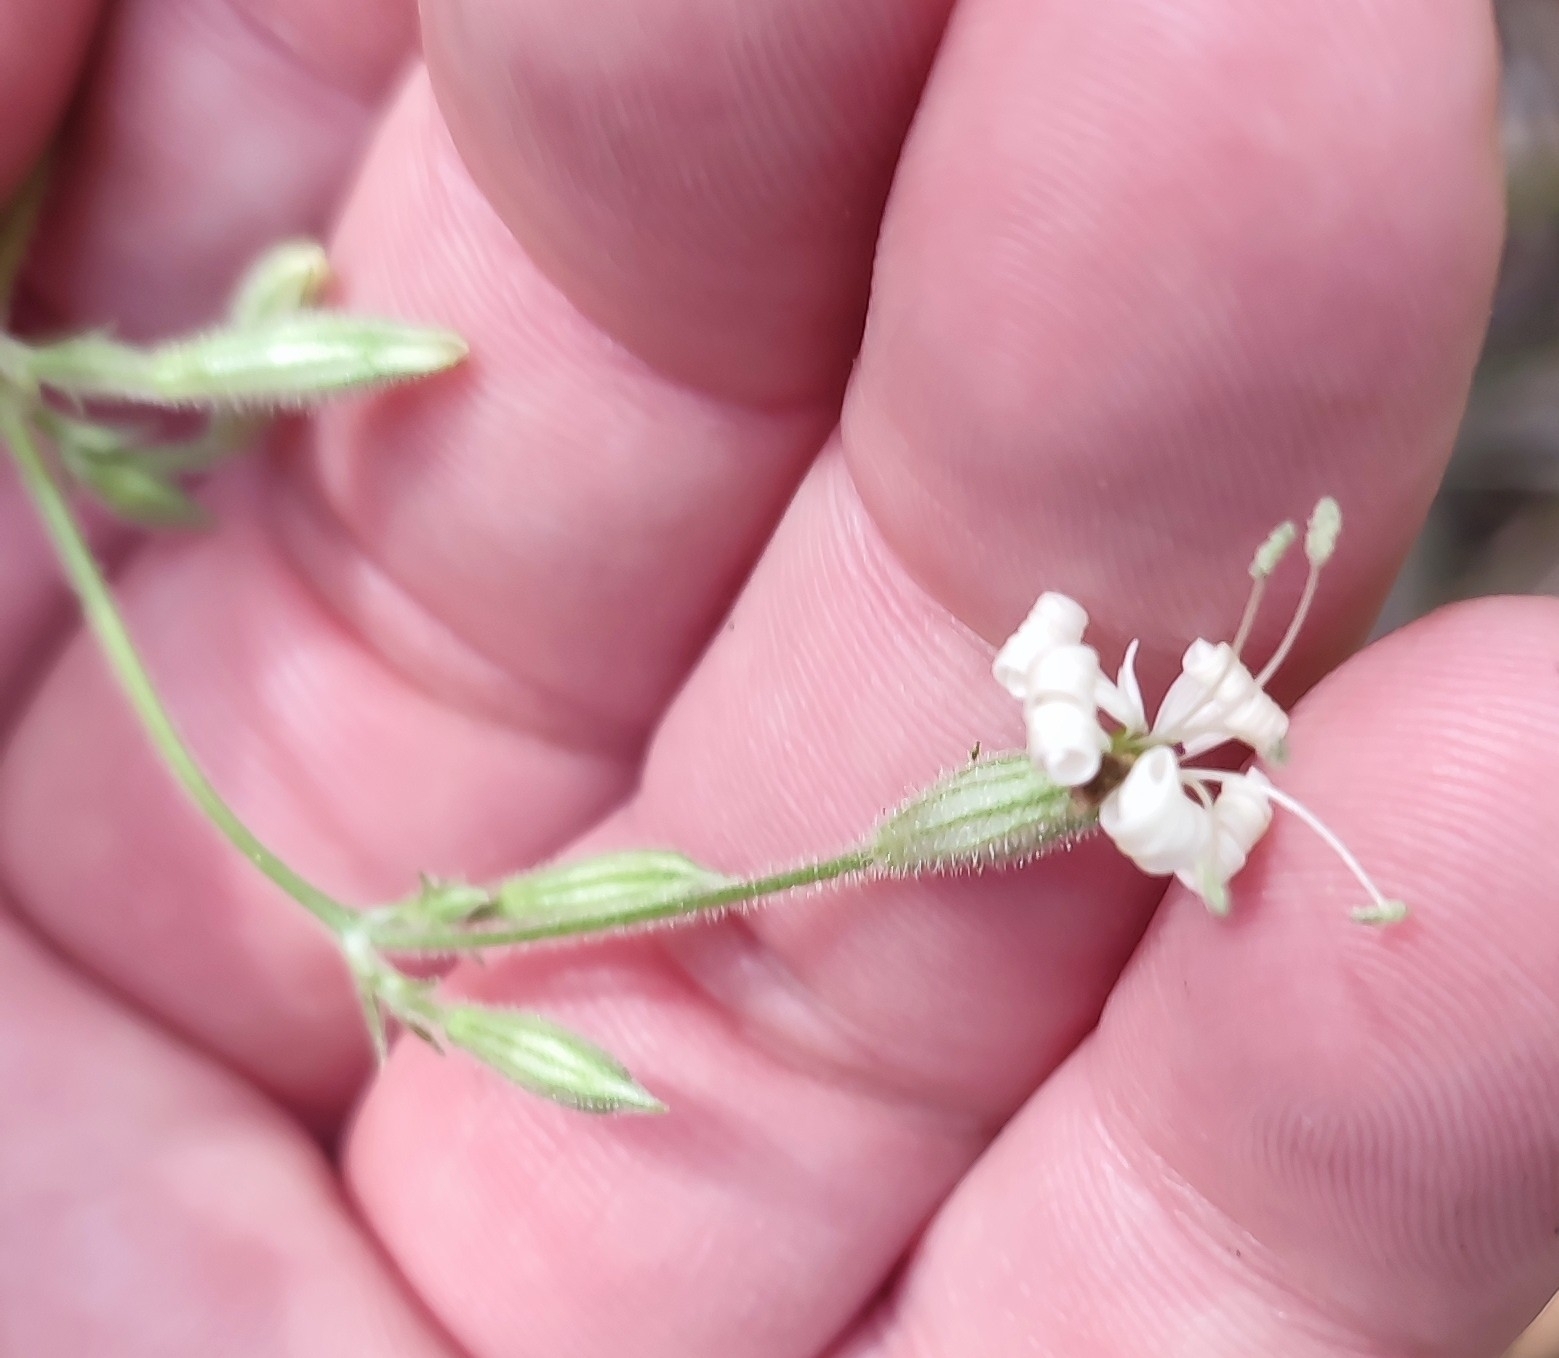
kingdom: Plantae
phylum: Tracheophyta
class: Magnoliopsida
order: Caryophyllales
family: Caryophyllaceae
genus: Silene
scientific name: Silene nutans
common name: Nottingham catchfly
